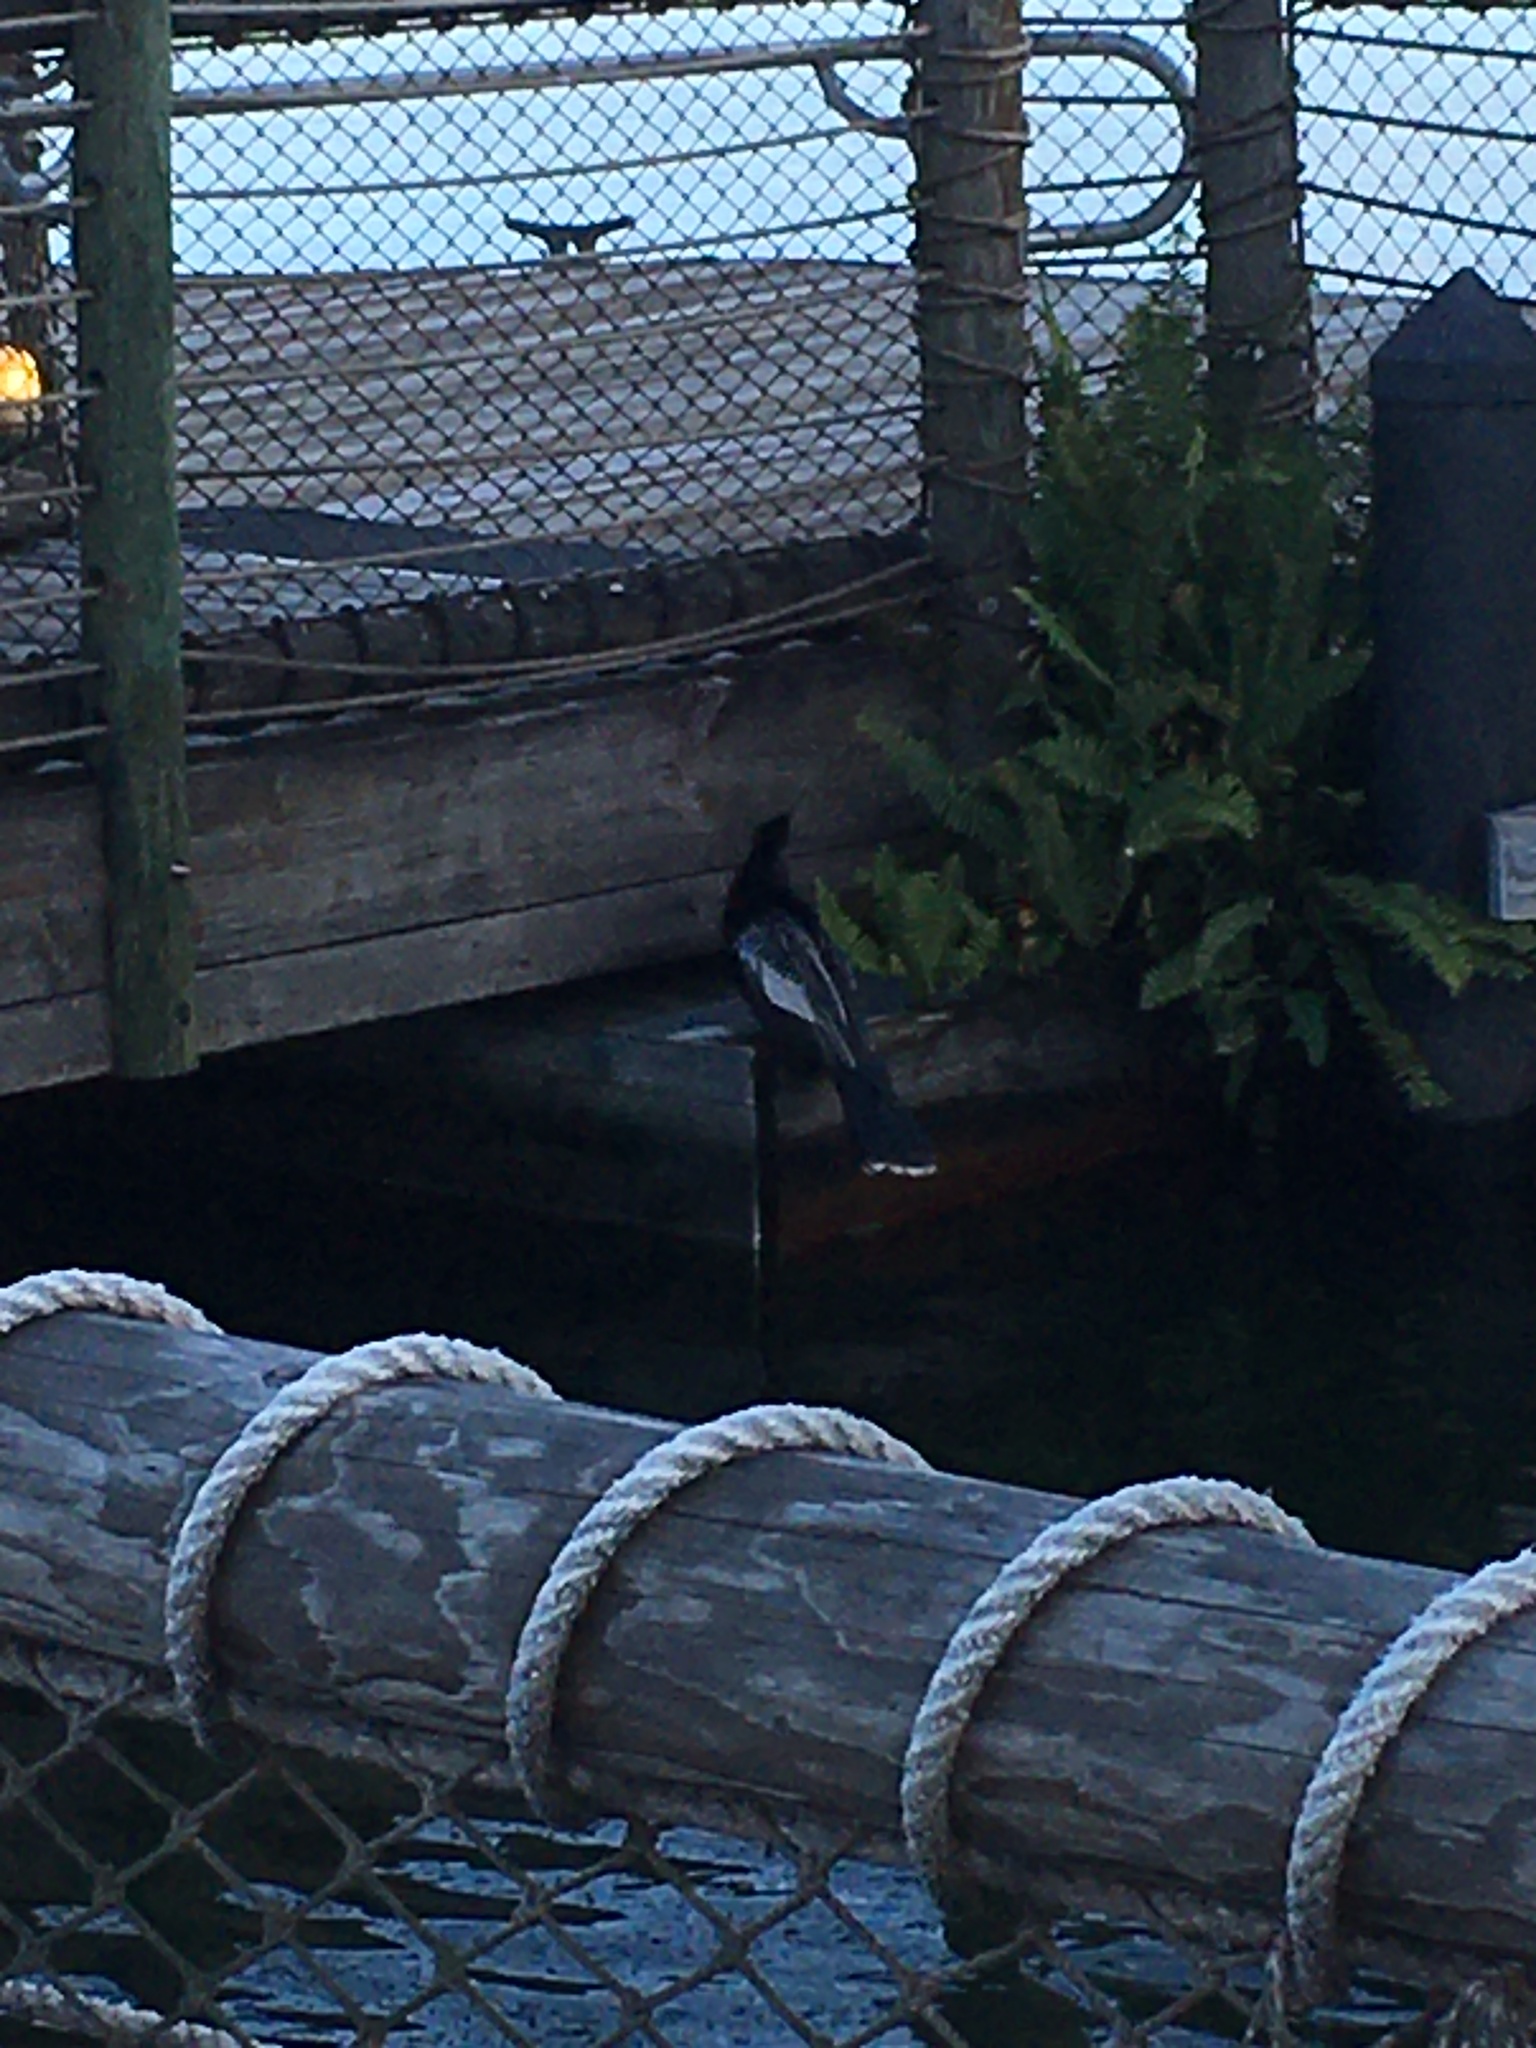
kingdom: Animalia
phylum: Chordata
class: Aves
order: Suliformes
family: Anhingidae
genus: Anhinga
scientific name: Anhinga anhinga
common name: Anhinga
